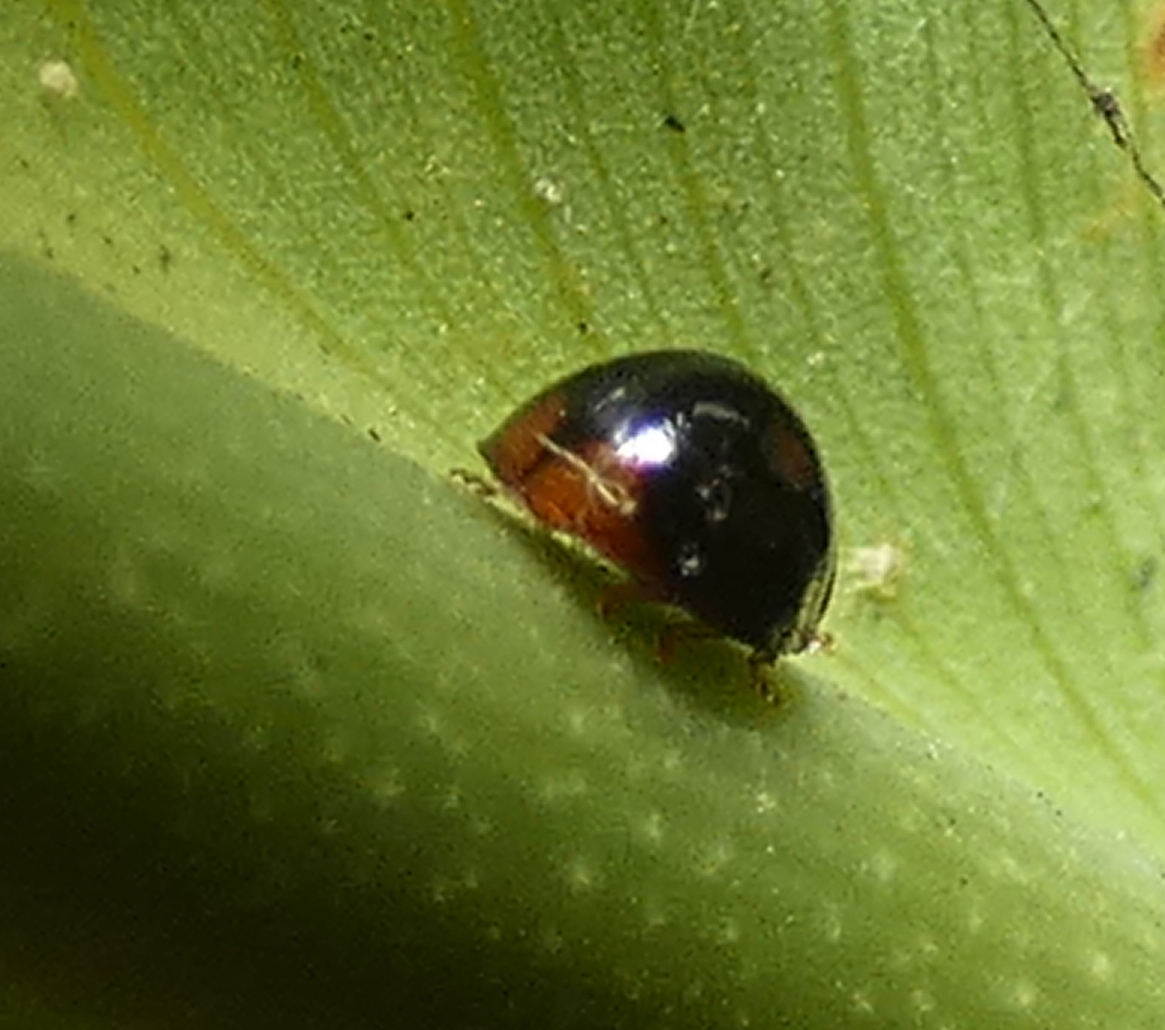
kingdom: Animalia
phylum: Arthropoda
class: Insecta
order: Coleoptera
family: Coccinellidae
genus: Cryptognatha
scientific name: Cryptognatha
